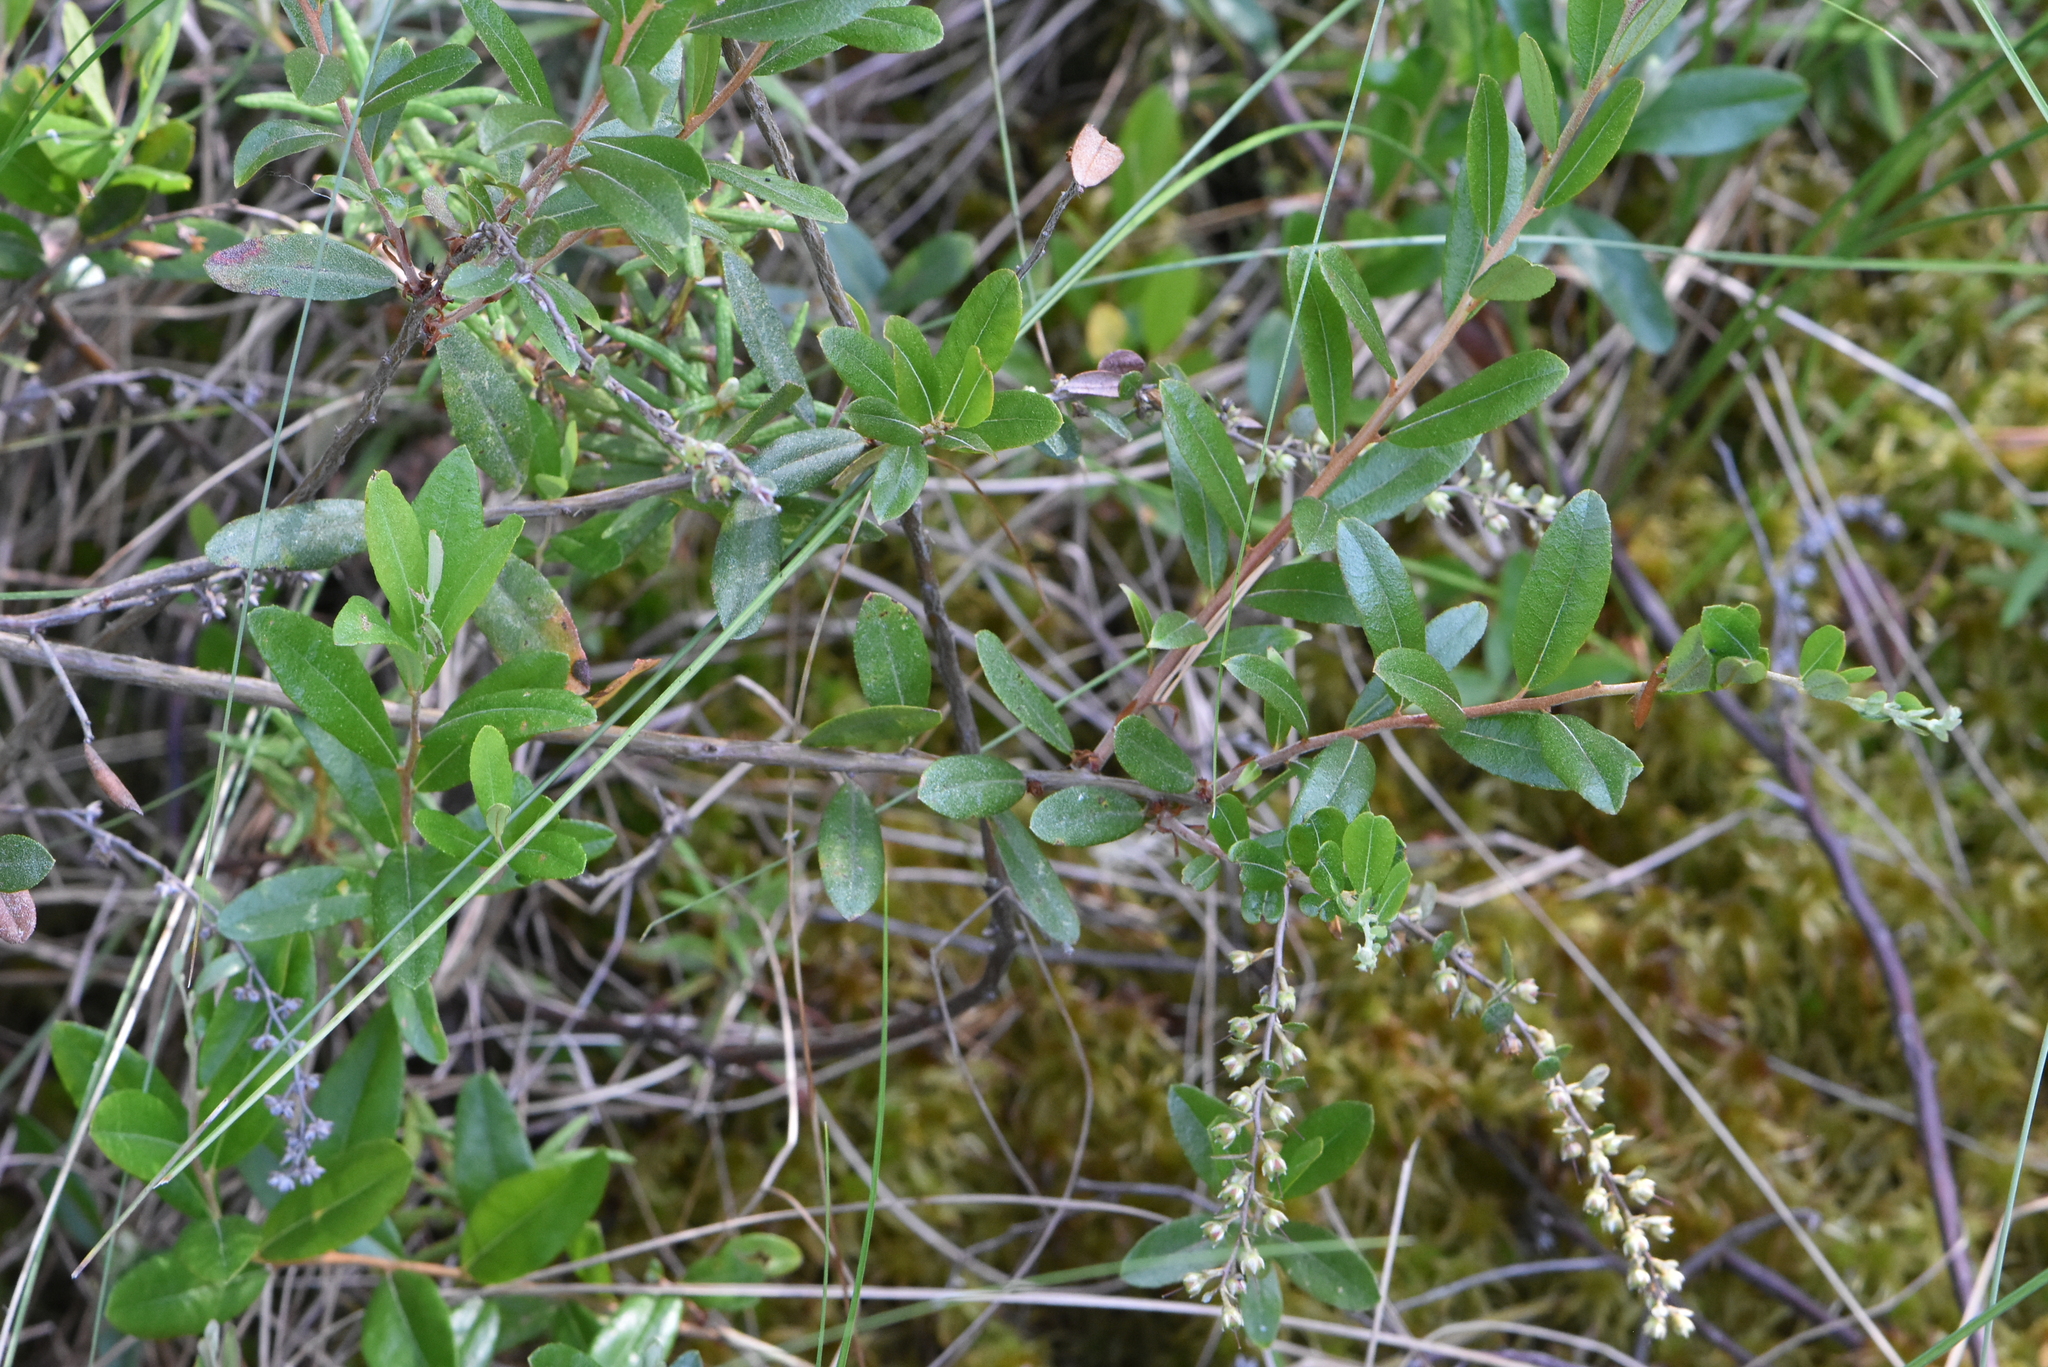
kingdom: Plantae
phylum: Tracheophyta
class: Magnoliopsida
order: Ericales
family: Ericaceae
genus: Chamaedaphne
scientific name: Chamaedaphne calyculata
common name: Leatherleaf
